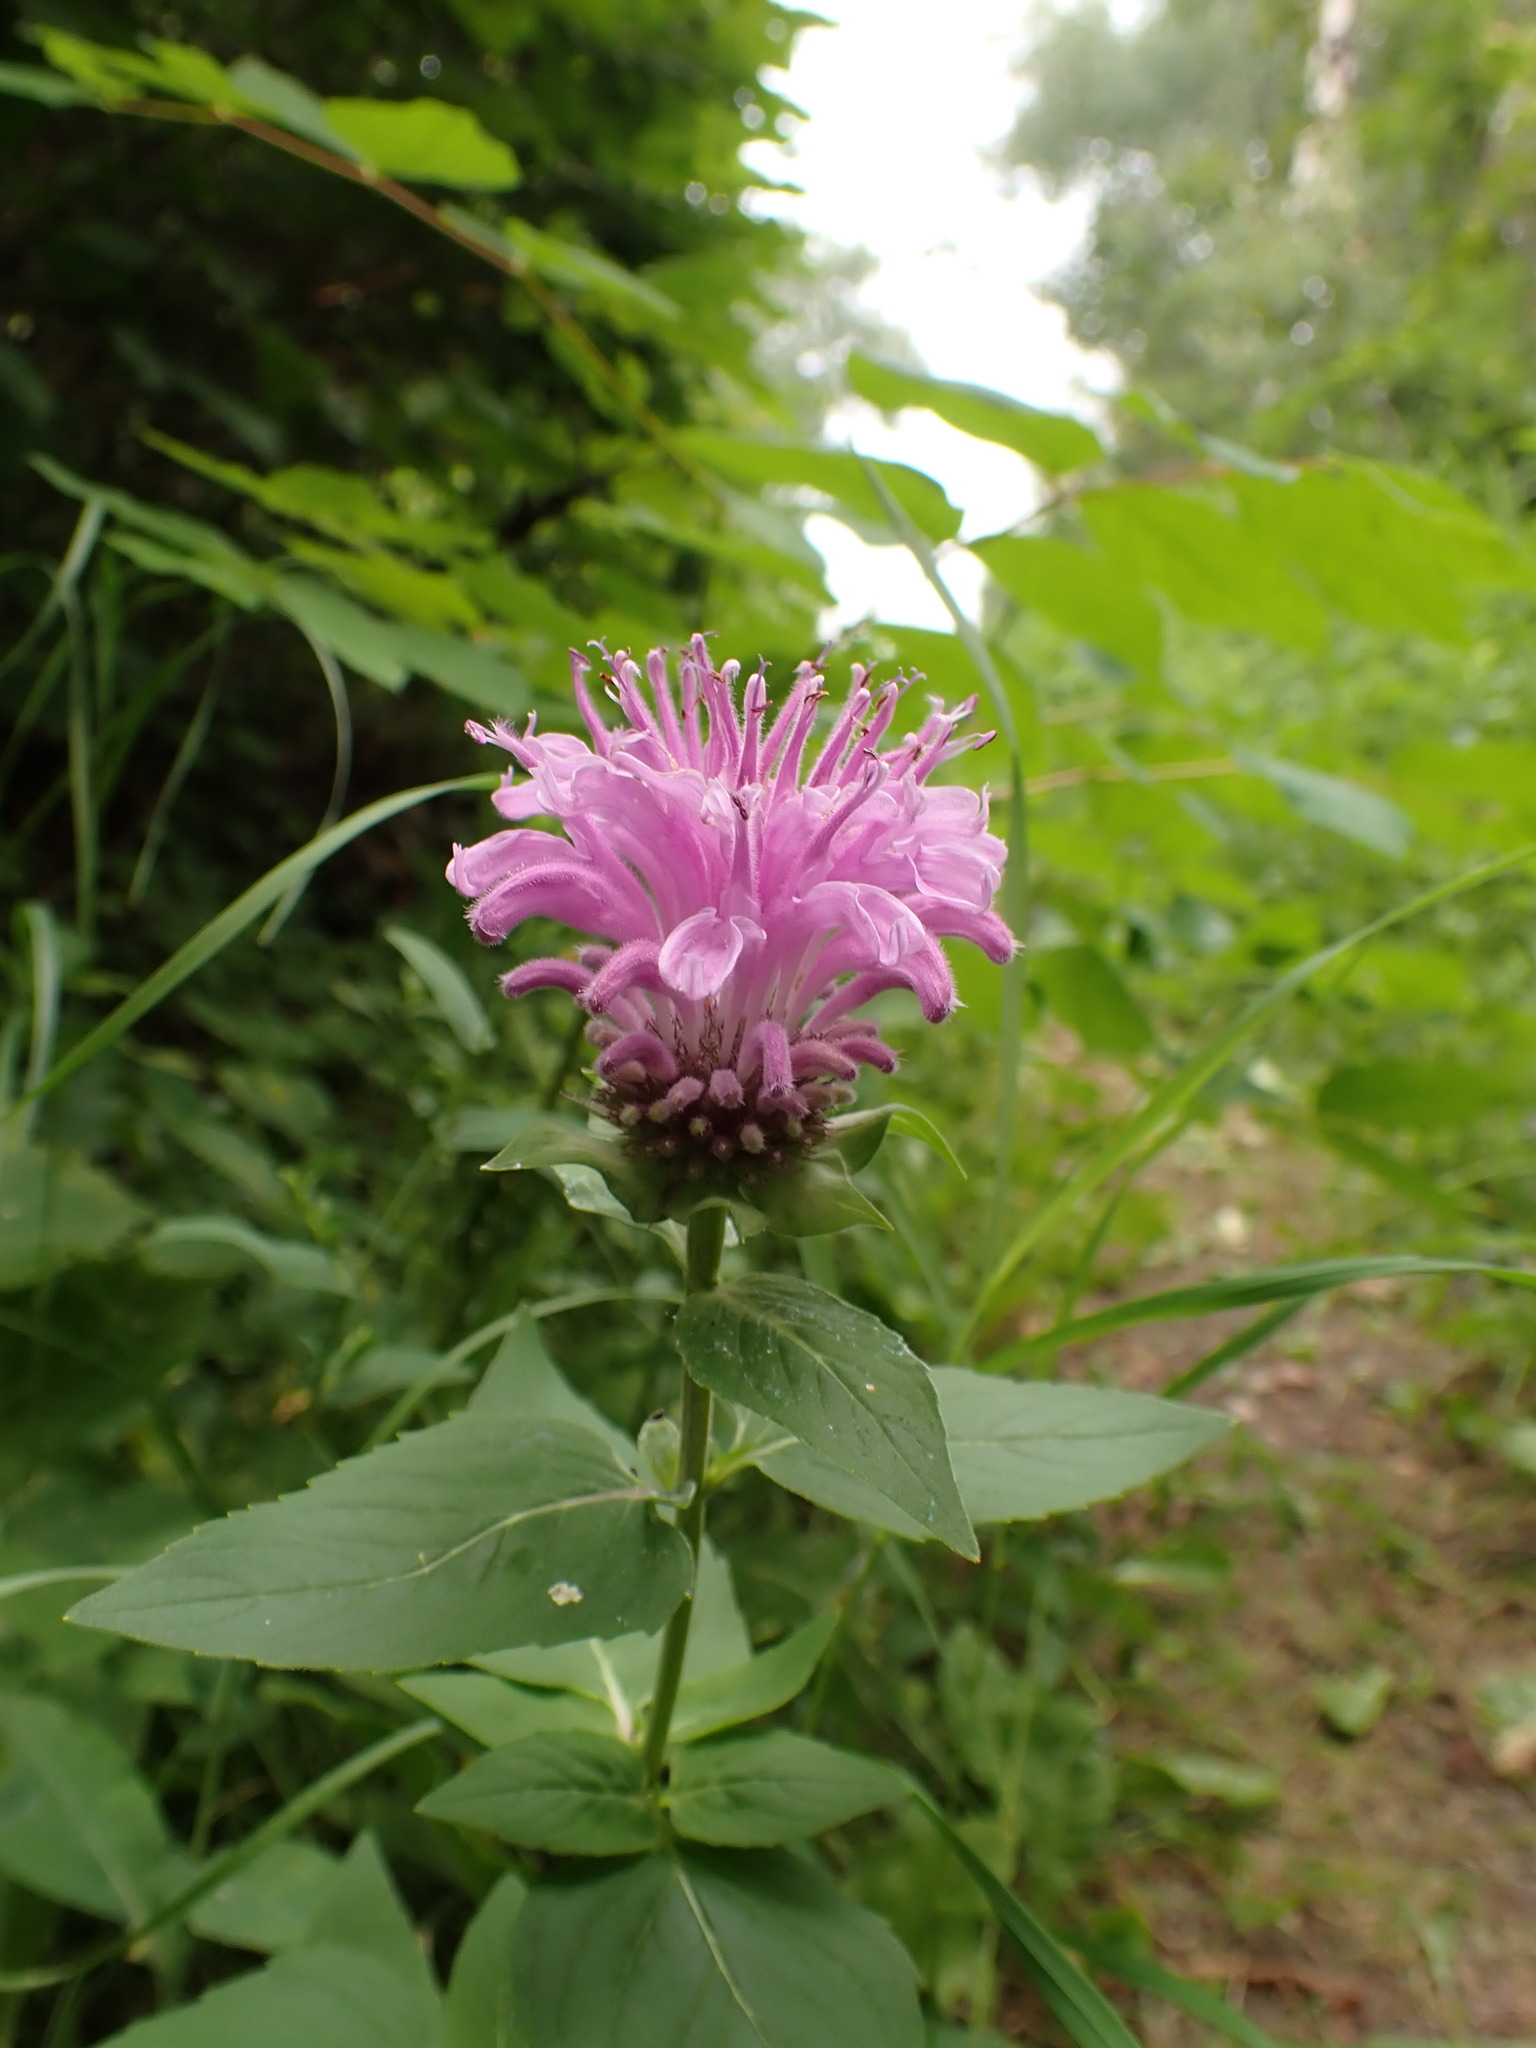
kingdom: Plantae
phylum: Tracheophyta
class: Magnoliopsida
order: Lamiales
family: Lamiaceae
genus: Monarda
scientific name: Monarda fistulosa
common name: Purple beebalm
